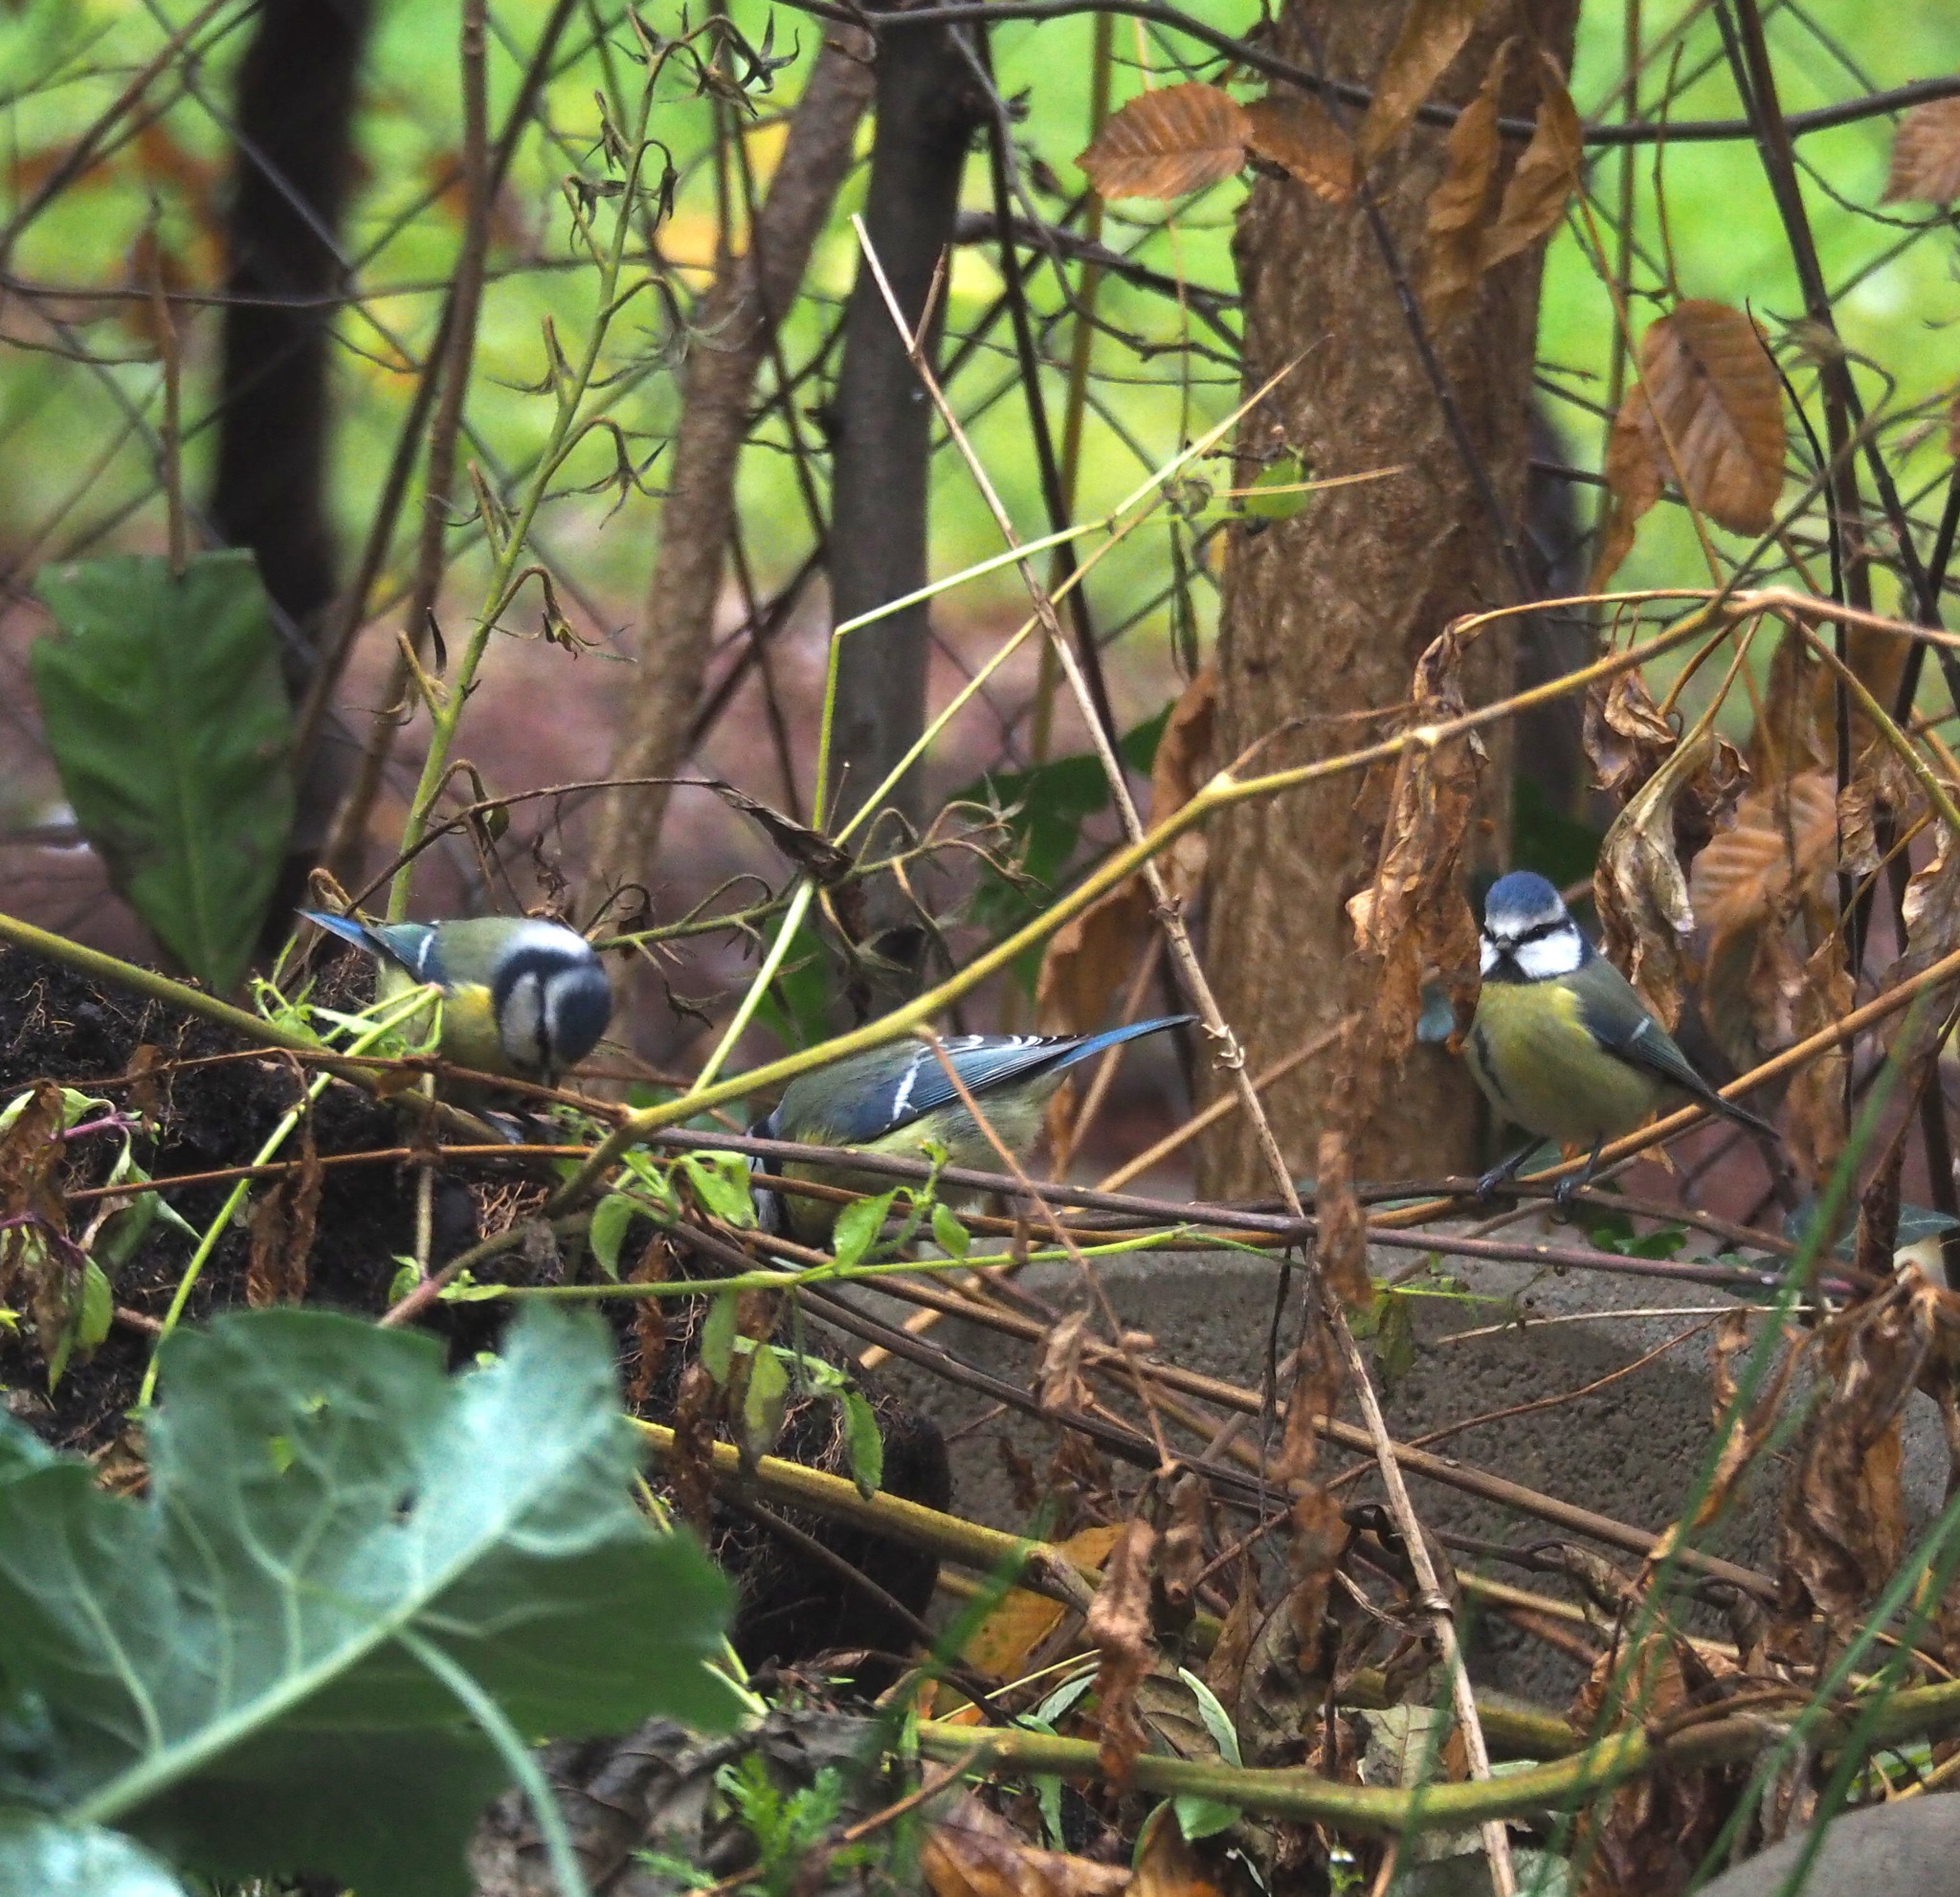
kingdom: Animalia
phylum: Chordata
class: Aves
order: Passeriformes
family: Paridae
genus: Cyanistes
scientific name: Cyanistes caeruleus
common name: Eurasian blue tit
